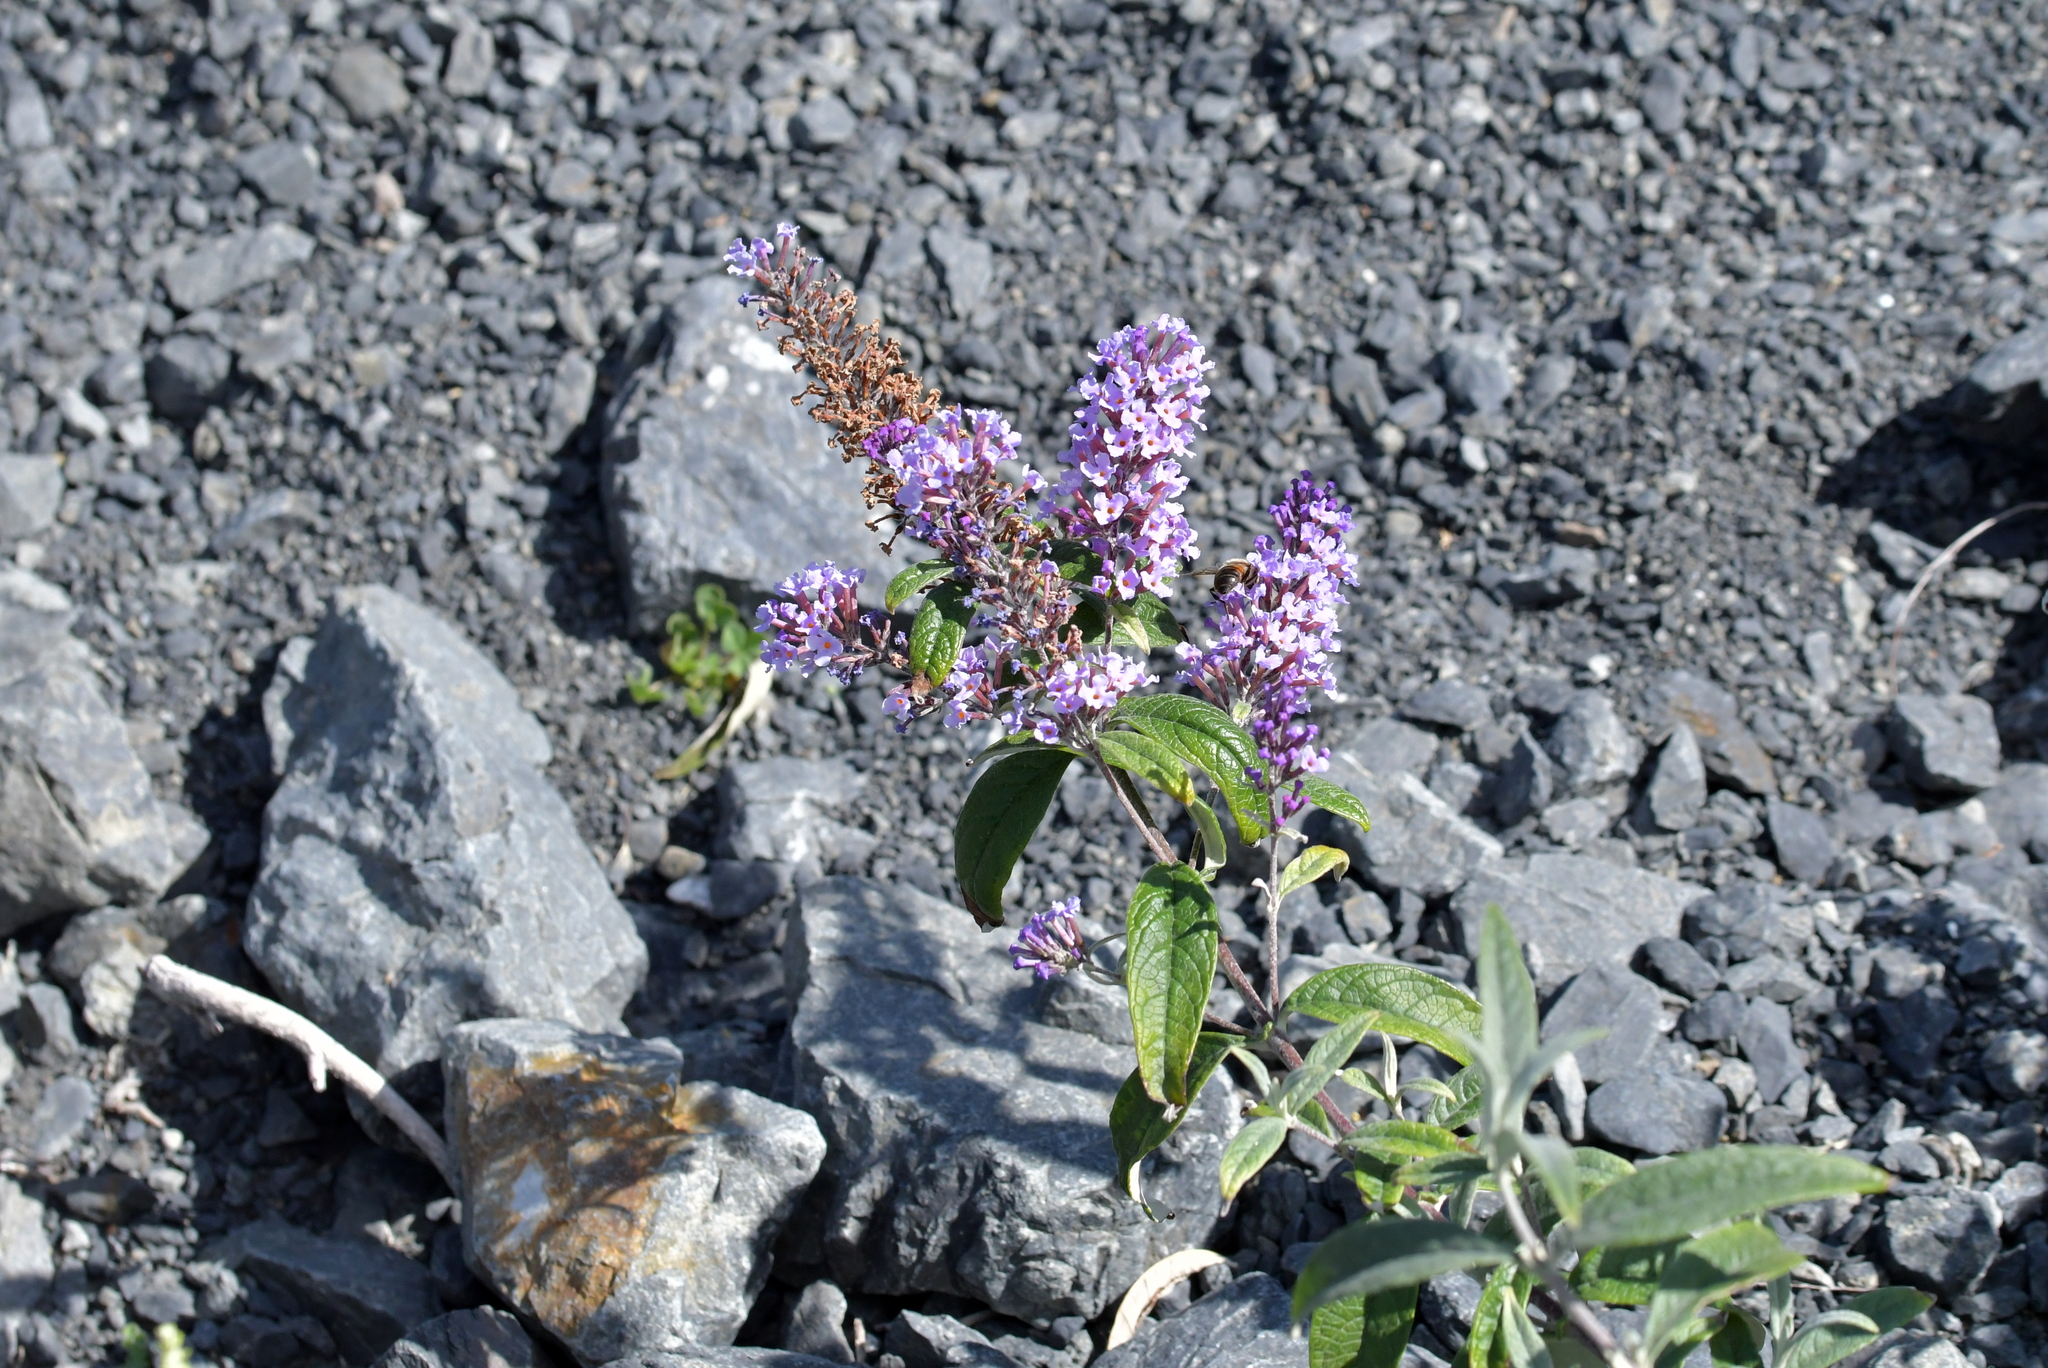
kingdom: Plantae
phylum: Tracheophyta
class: Magnoliopsida
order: Lamiales
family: Scrophulariaceae
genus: Buddleja
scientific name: Buddleja davidii
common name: Butterfly-bush
